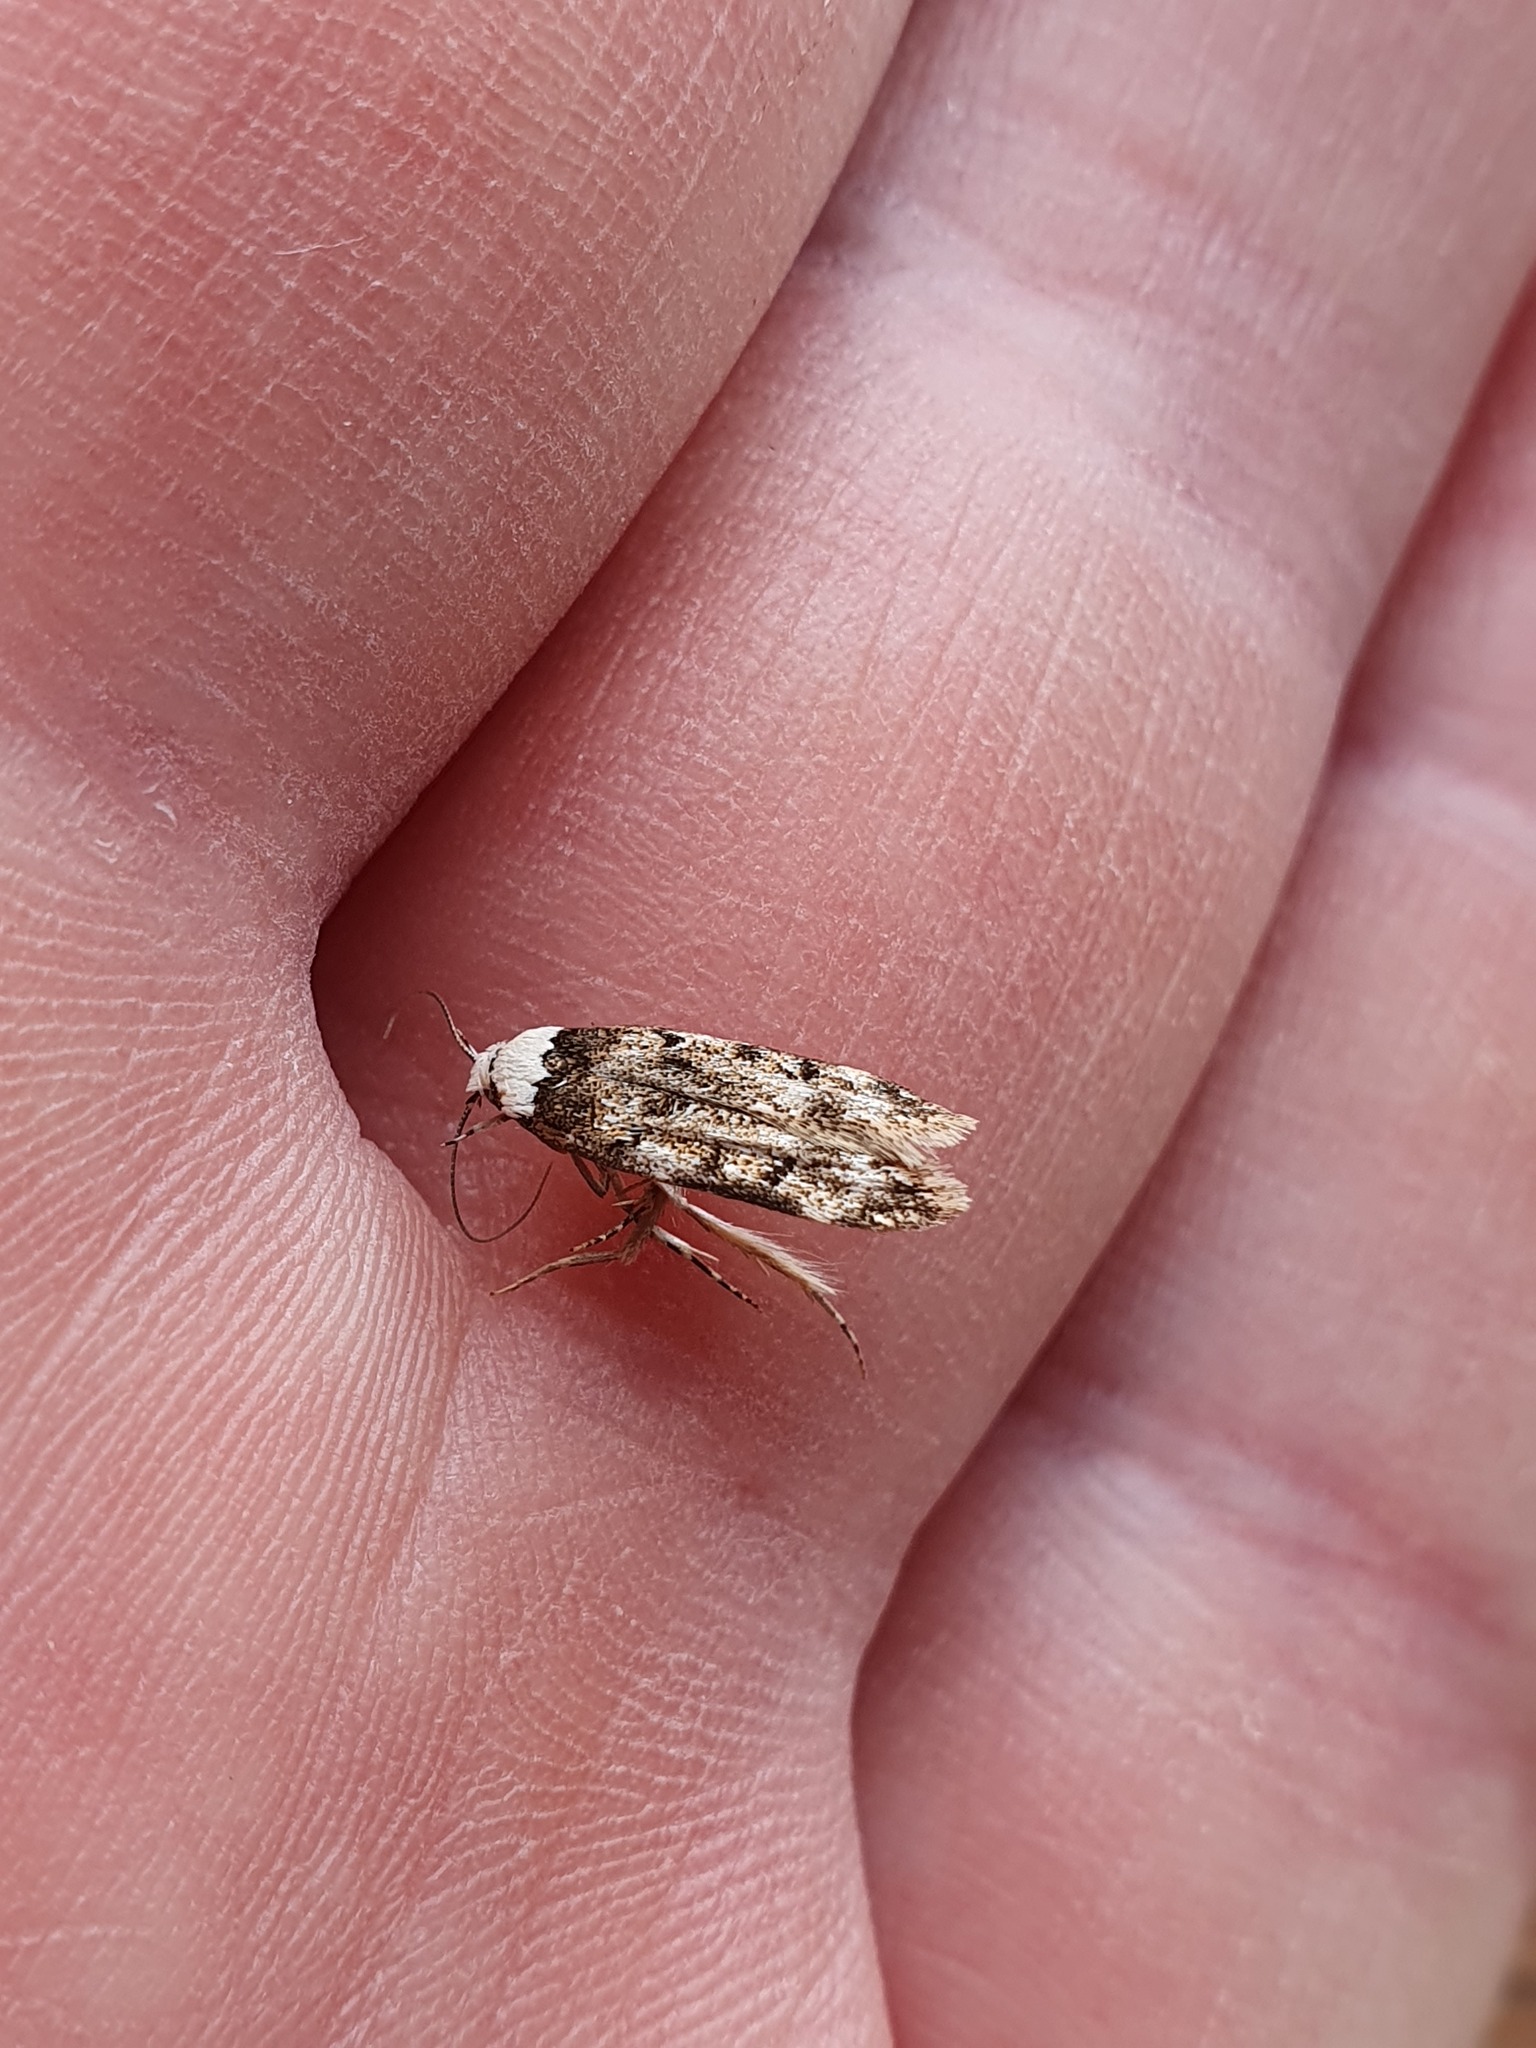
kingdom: Animalia
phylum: Arthropoda
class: Insecta
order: Lepidoptera
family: Oecophoridae
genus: Endrosis
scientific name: Endrosis sarcitrella
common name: White-shouldered house moth
